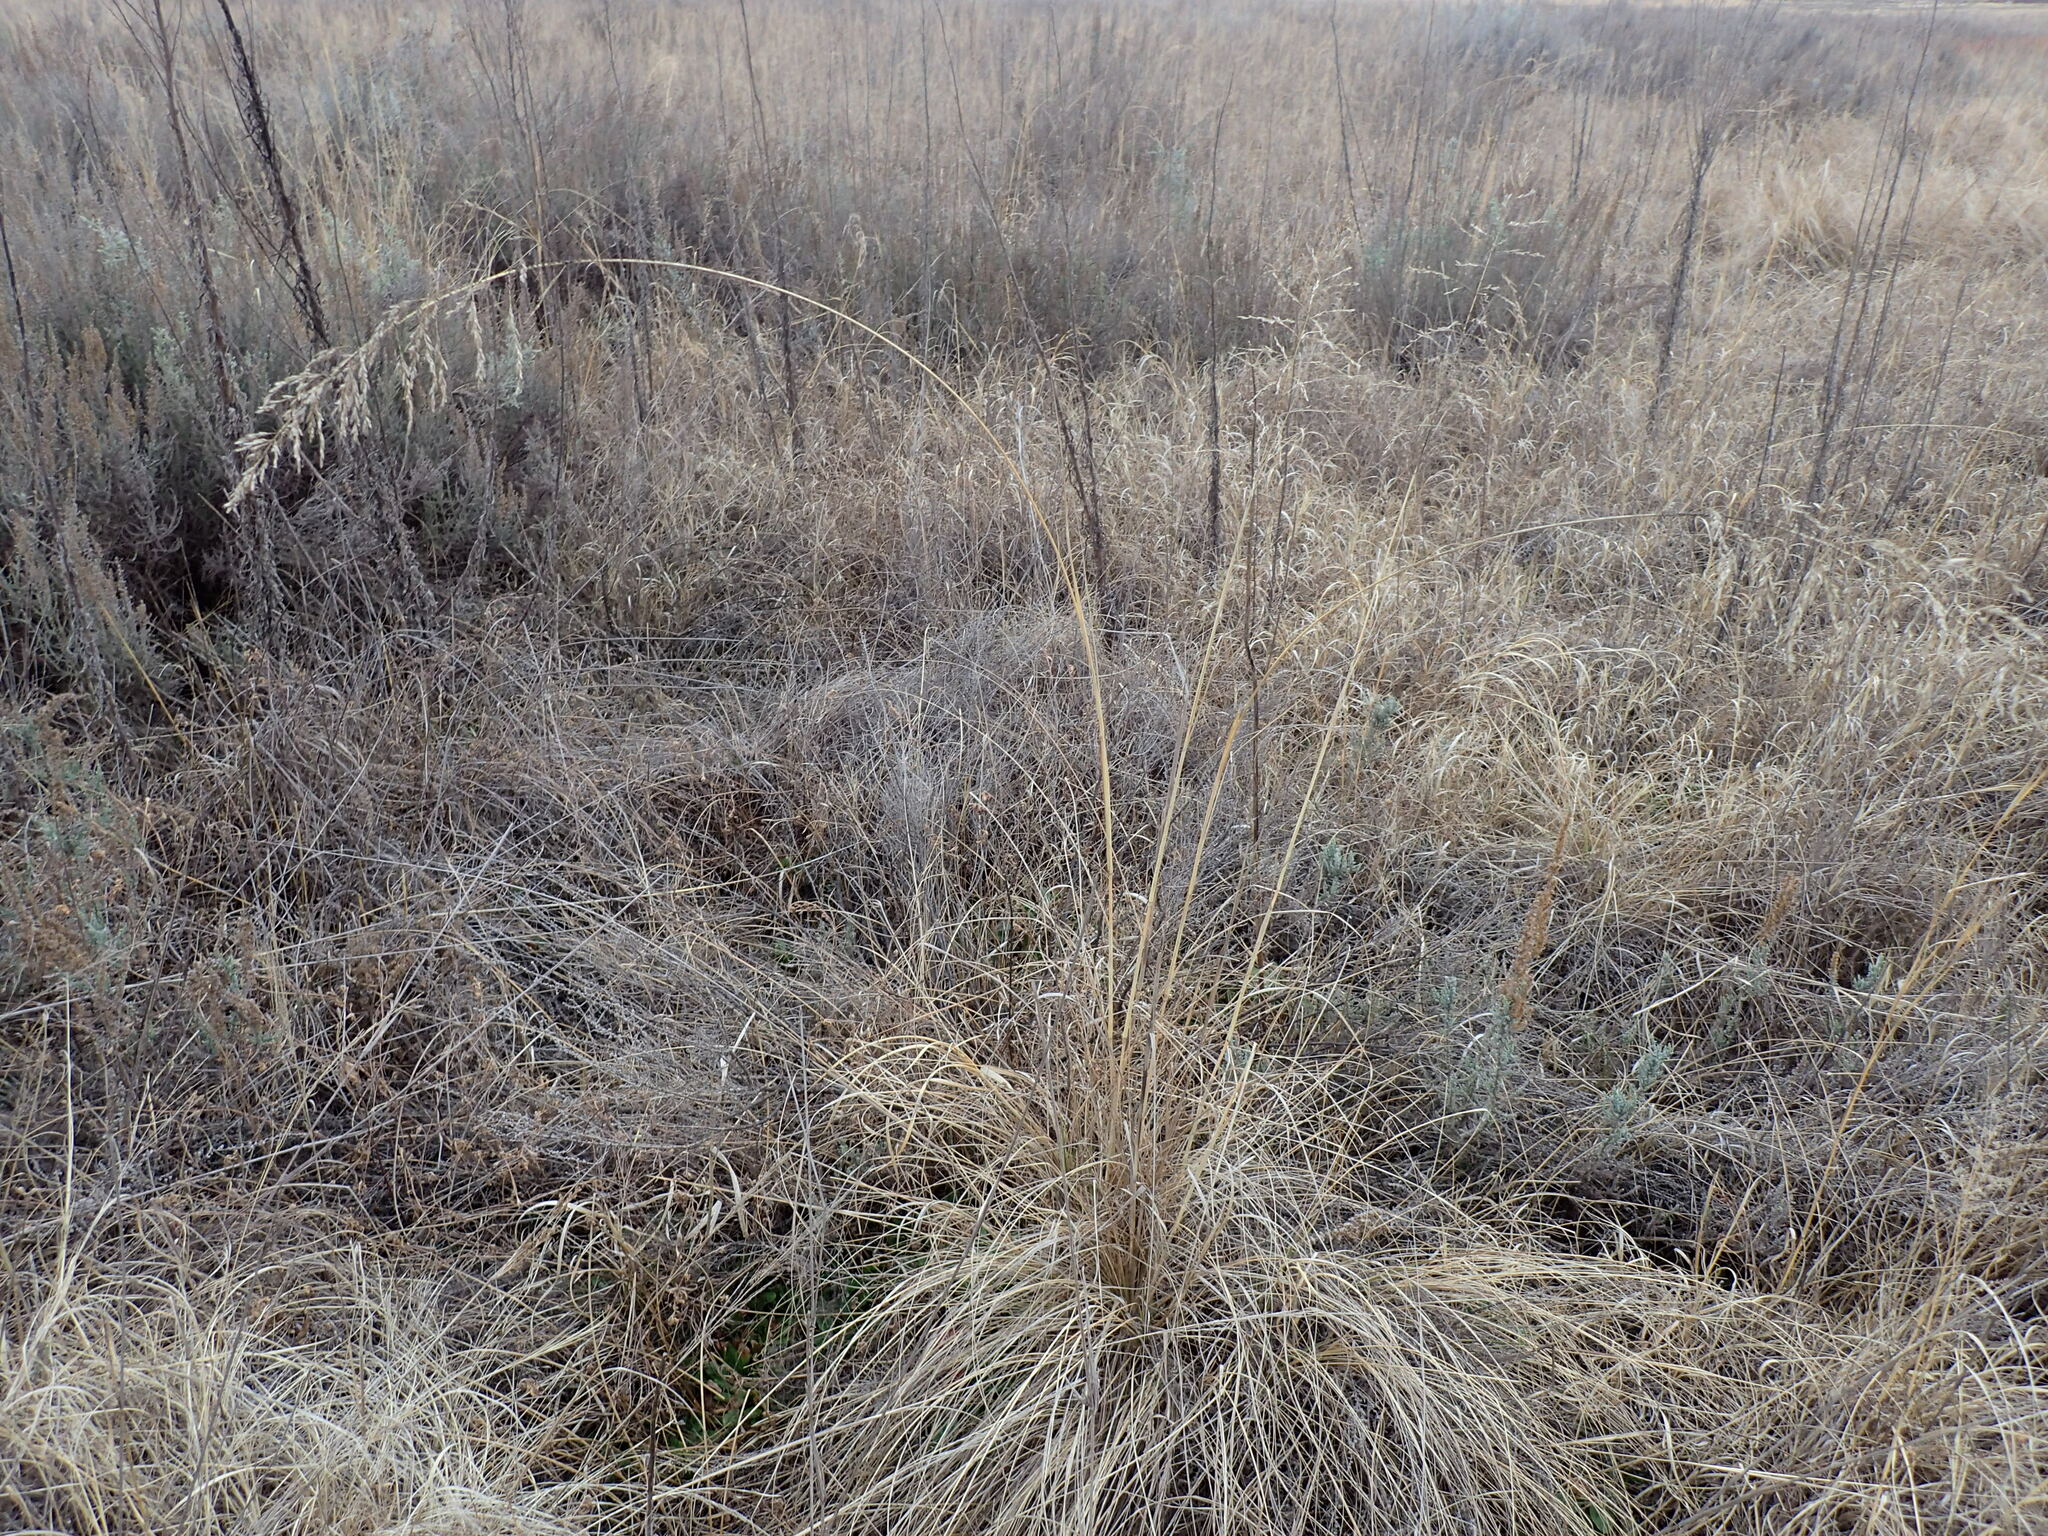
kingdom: Plantae
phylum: Tracheophyta
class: Liliopsida
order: Poales
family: Poaceae
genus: Eragrostis
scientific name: Eragrostis curvula
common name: African love-grass
